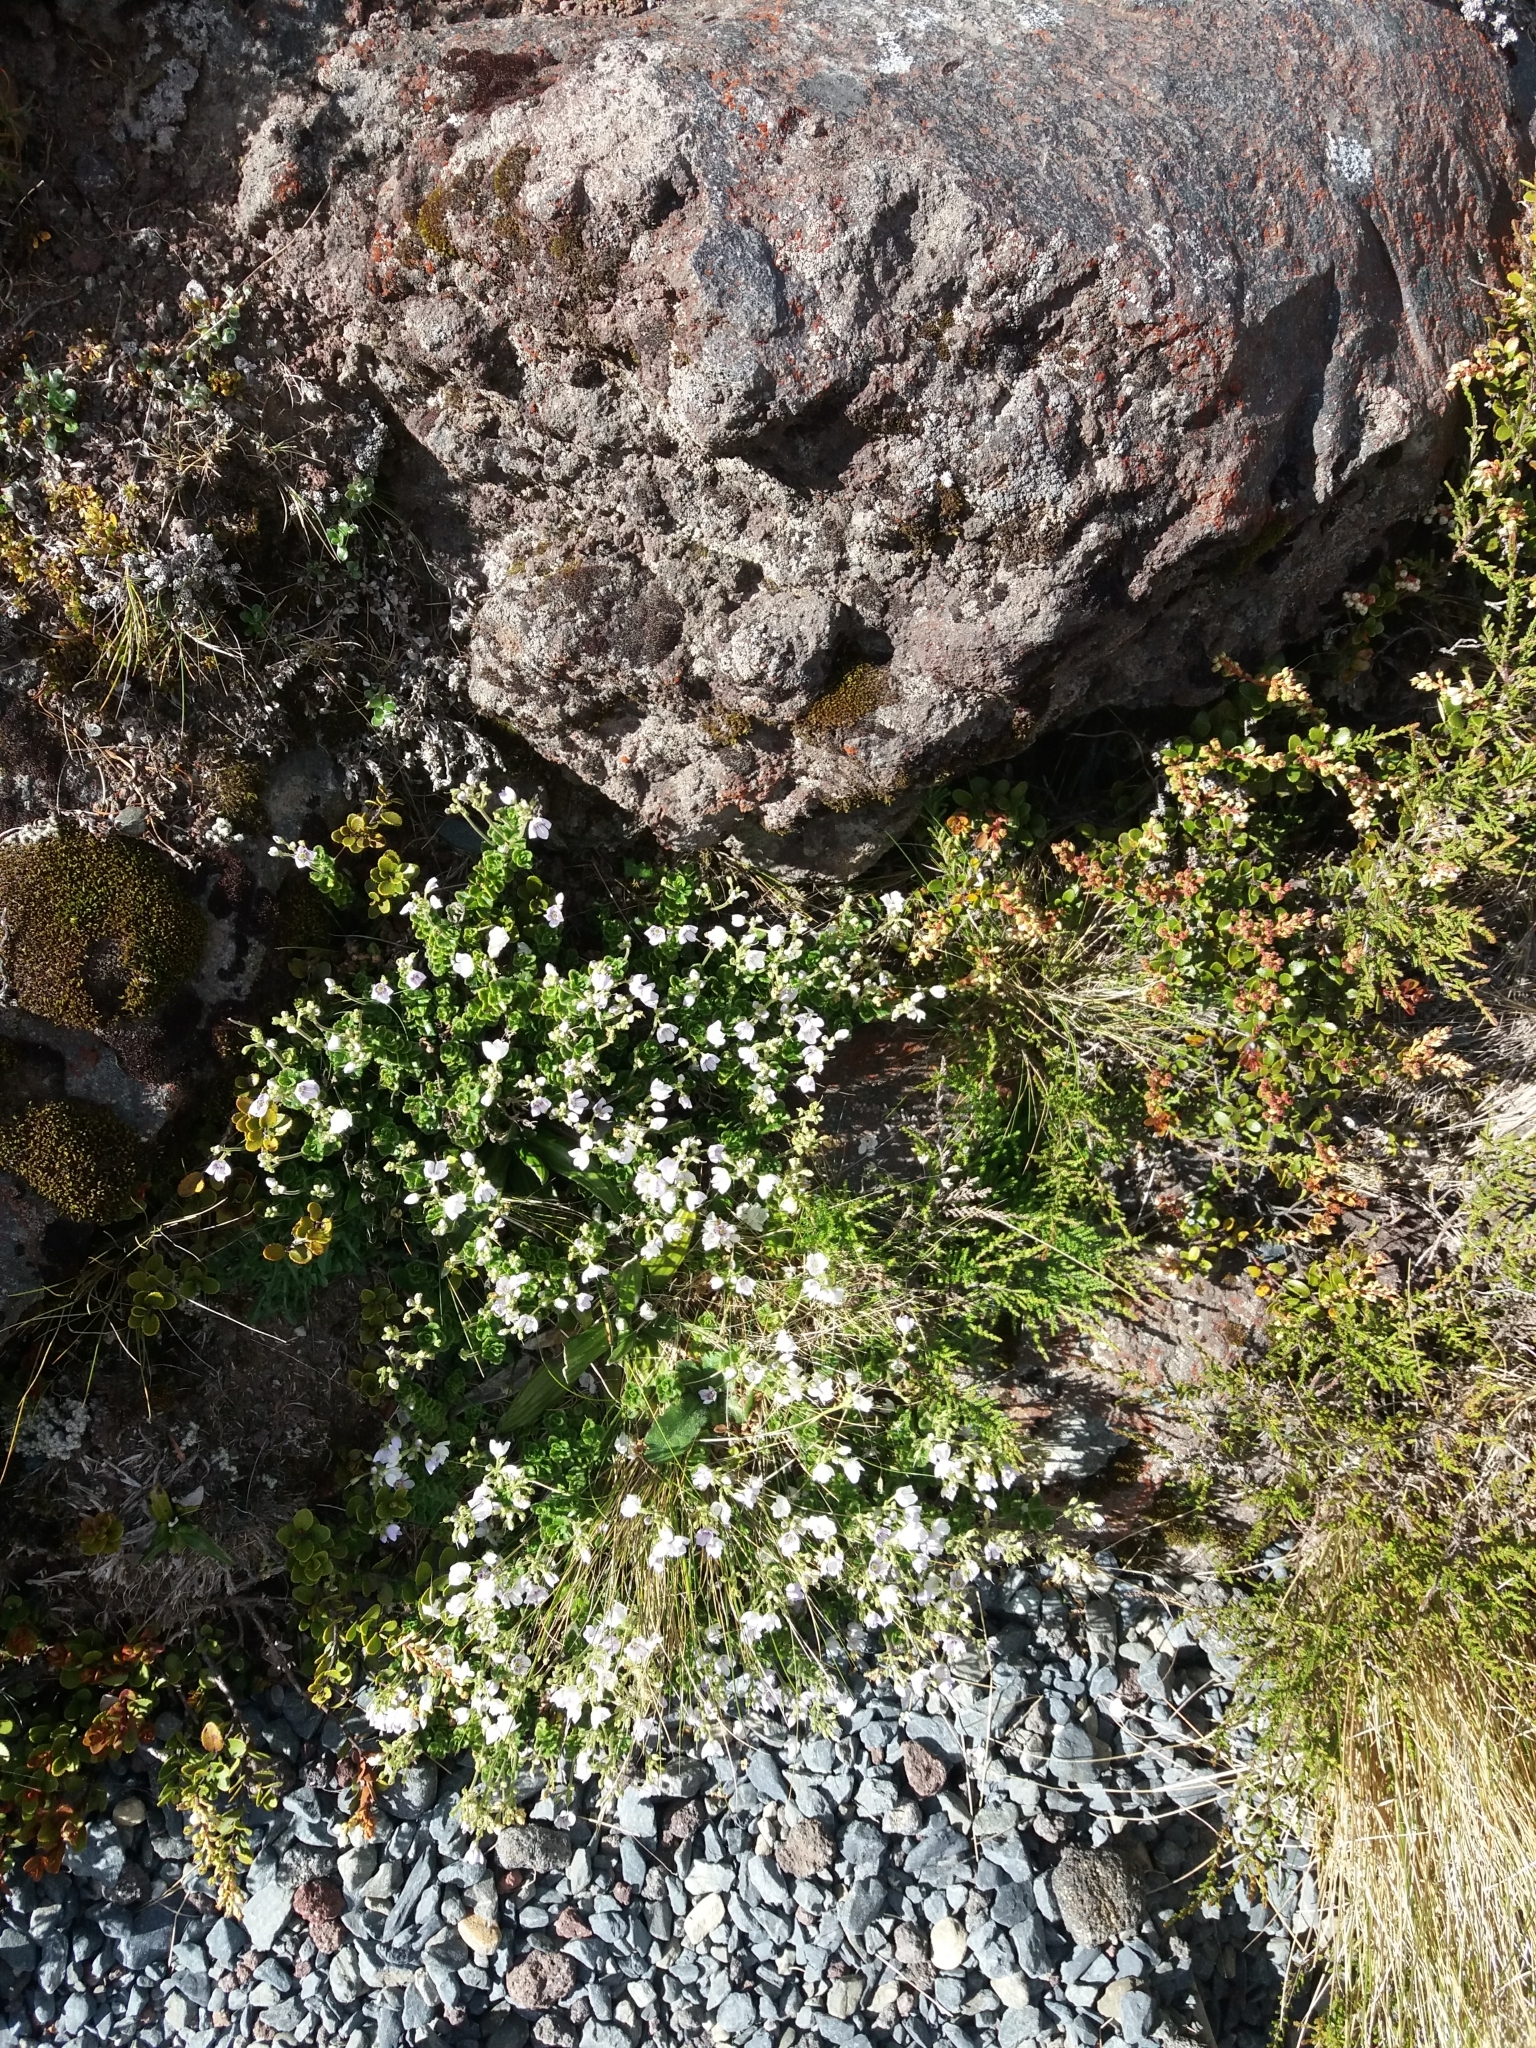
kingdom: Plantae
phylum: Tracheophyta
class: Magnoliopsida
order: Lamiales
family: Plantaginaceae
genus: Veronica
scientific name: Veronica hookeriana
